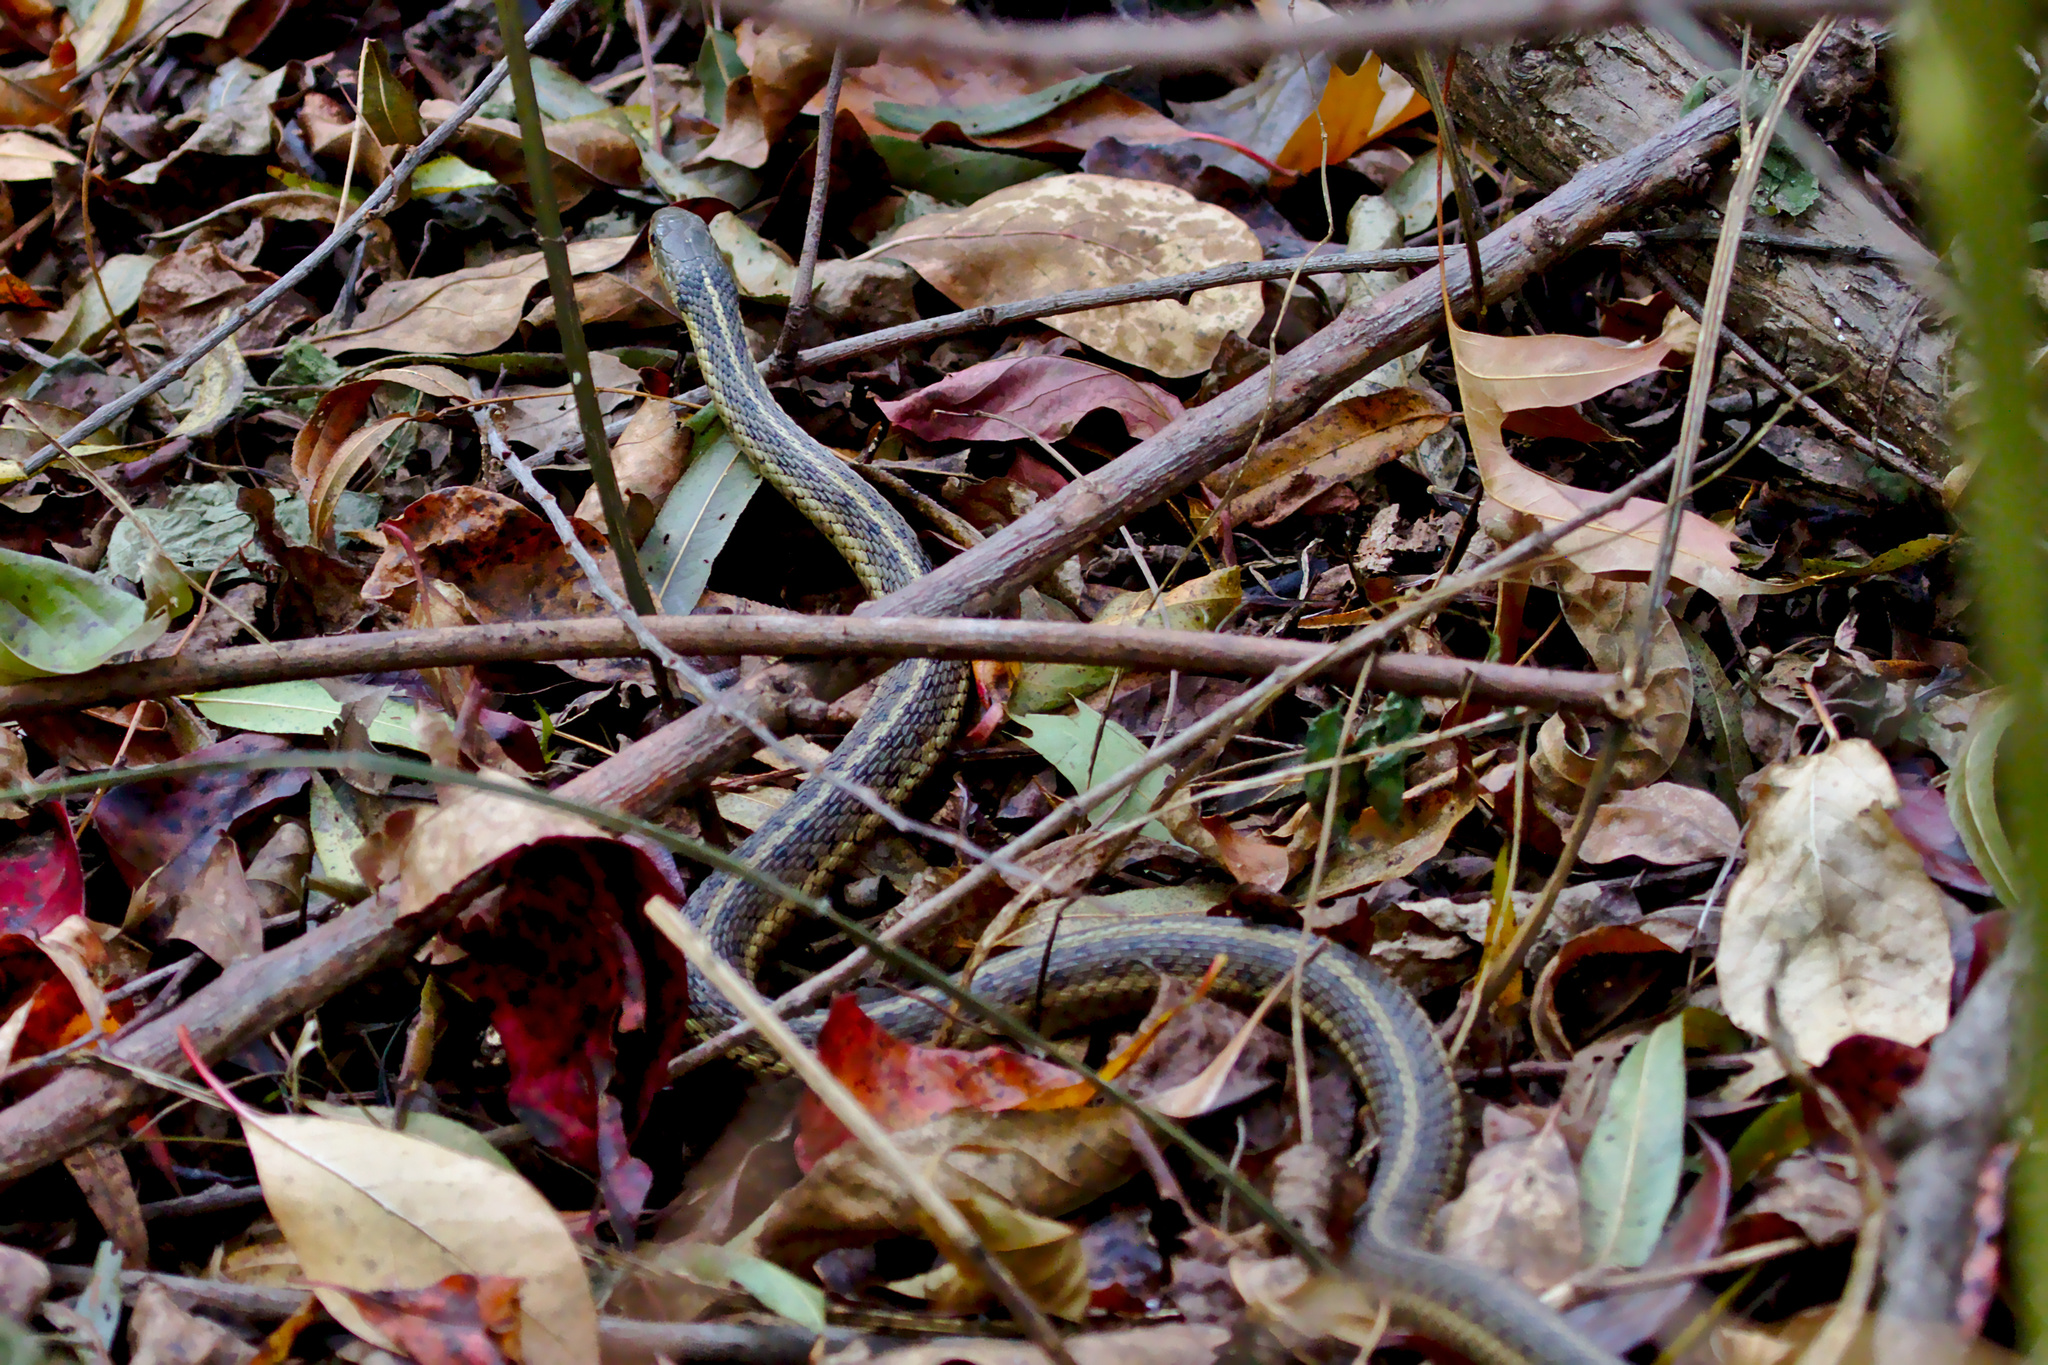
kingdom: Animalia
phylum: Chordata
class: Squamata
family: Colubridae
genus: Thamnophis
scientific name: Thamnophis sirtalis
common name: Common garter snake
